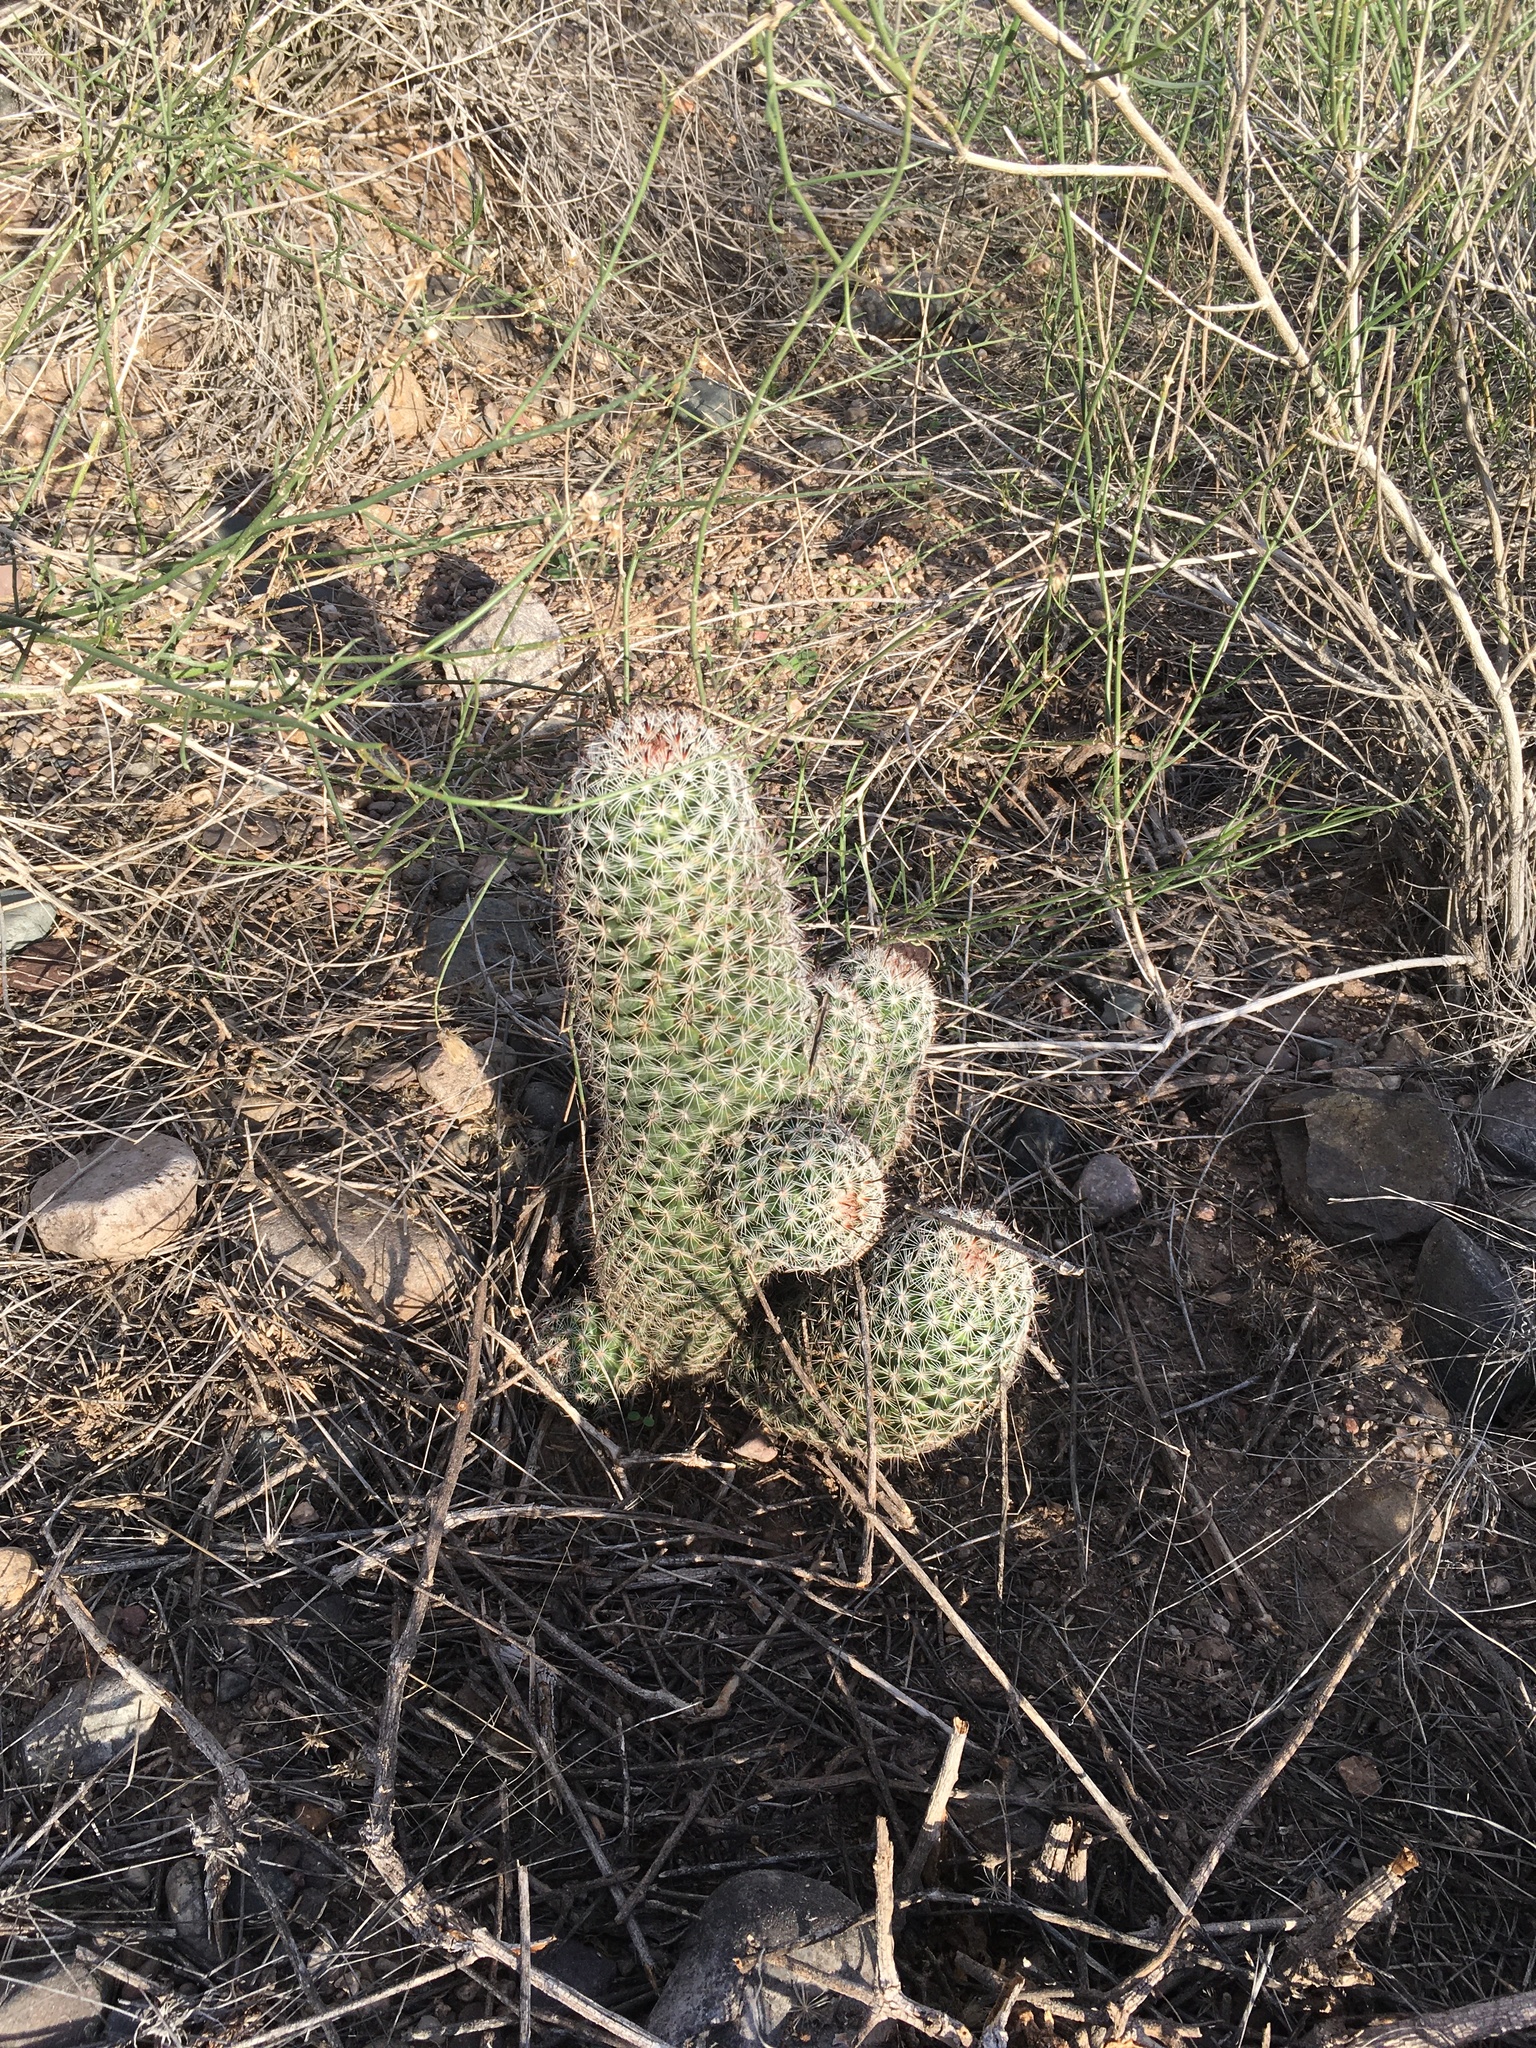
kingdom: Plantae
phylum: Tracheophyta
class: Magnoliopsida
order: Caryophyllales
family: Cactaceae
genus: Cochemiea
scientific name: Cochemiea grahamii
